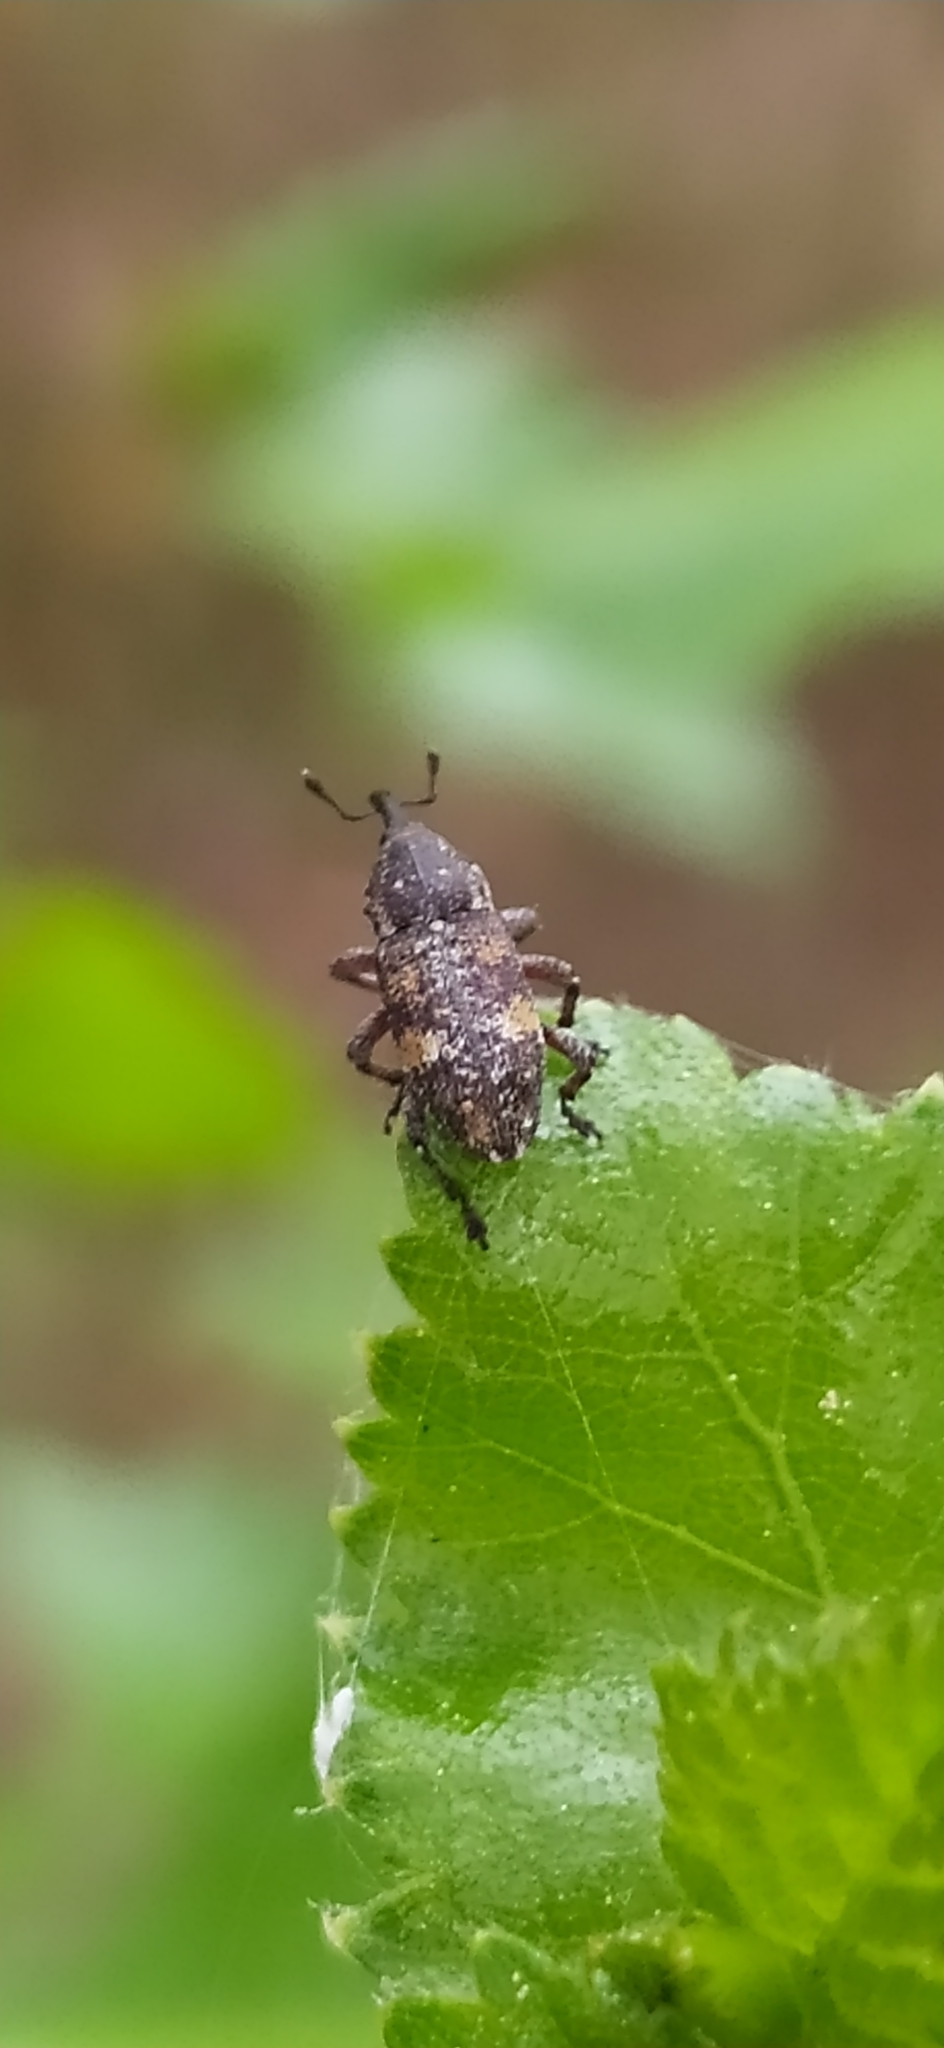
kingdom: Animalia
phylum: Arthropoda
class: Insecta
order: Coleoptera
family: Curculionidae
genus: Pissodes
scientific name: Pissodes validirostris
